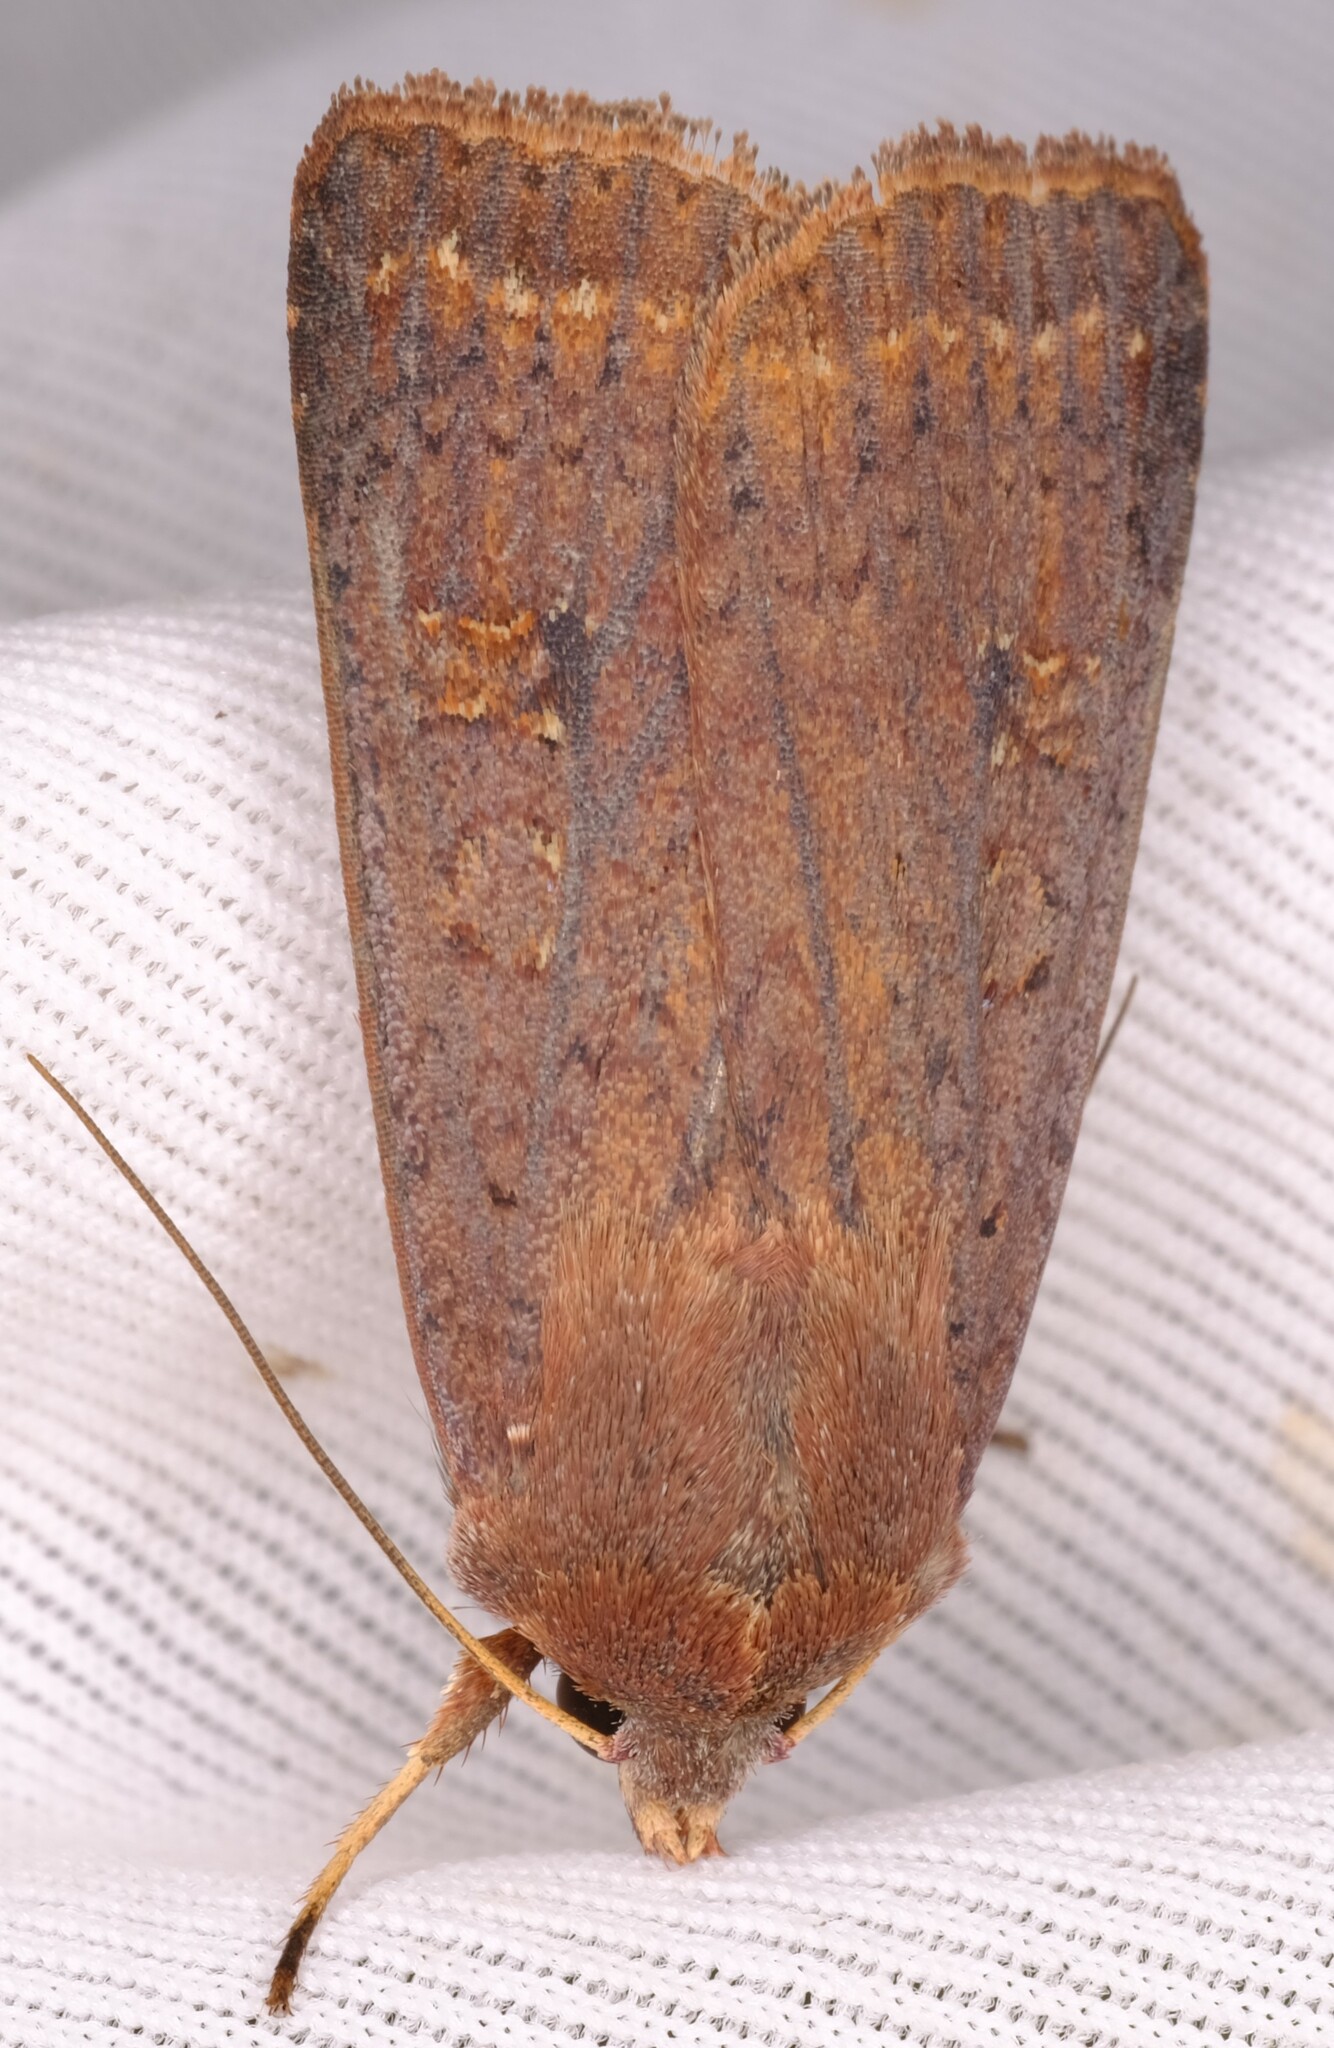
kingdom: Animalia
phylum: Arthropoda
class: Insecta
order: Lepidoptera
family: Noctuidae
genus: Diarsia
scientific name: Diarsia intermixta
